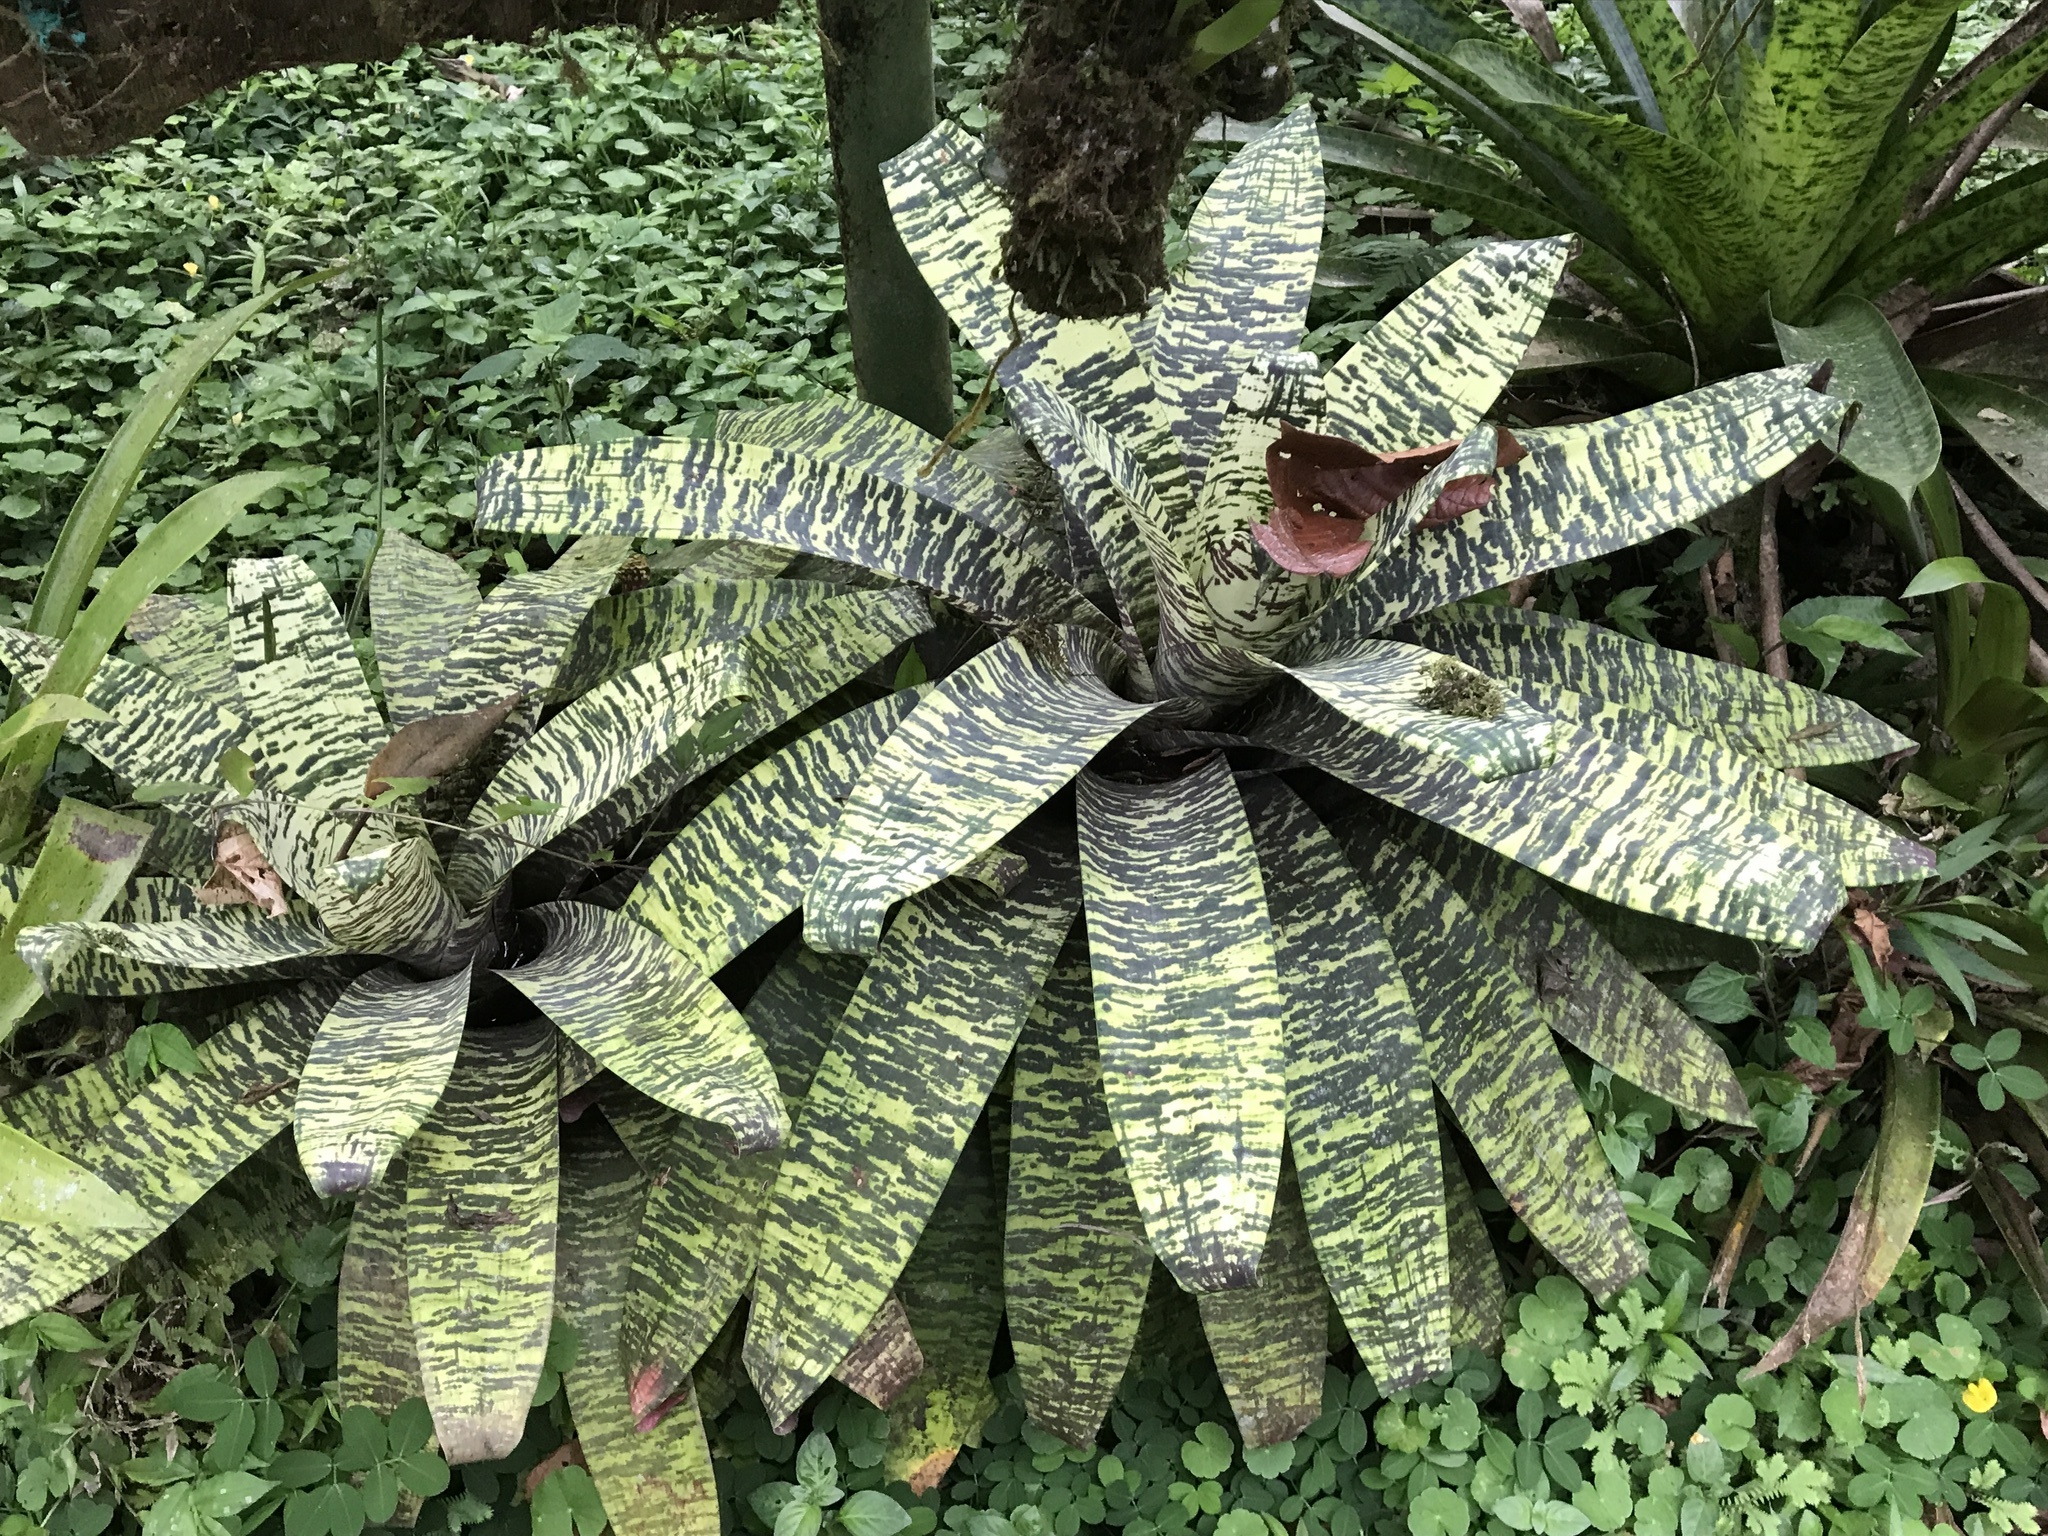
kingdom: Plantae
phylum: Tracheophyta
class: Liliopsida
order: Poales
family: Bromeliaceae
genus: Werauhia
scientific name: Werauhia kupperiana
